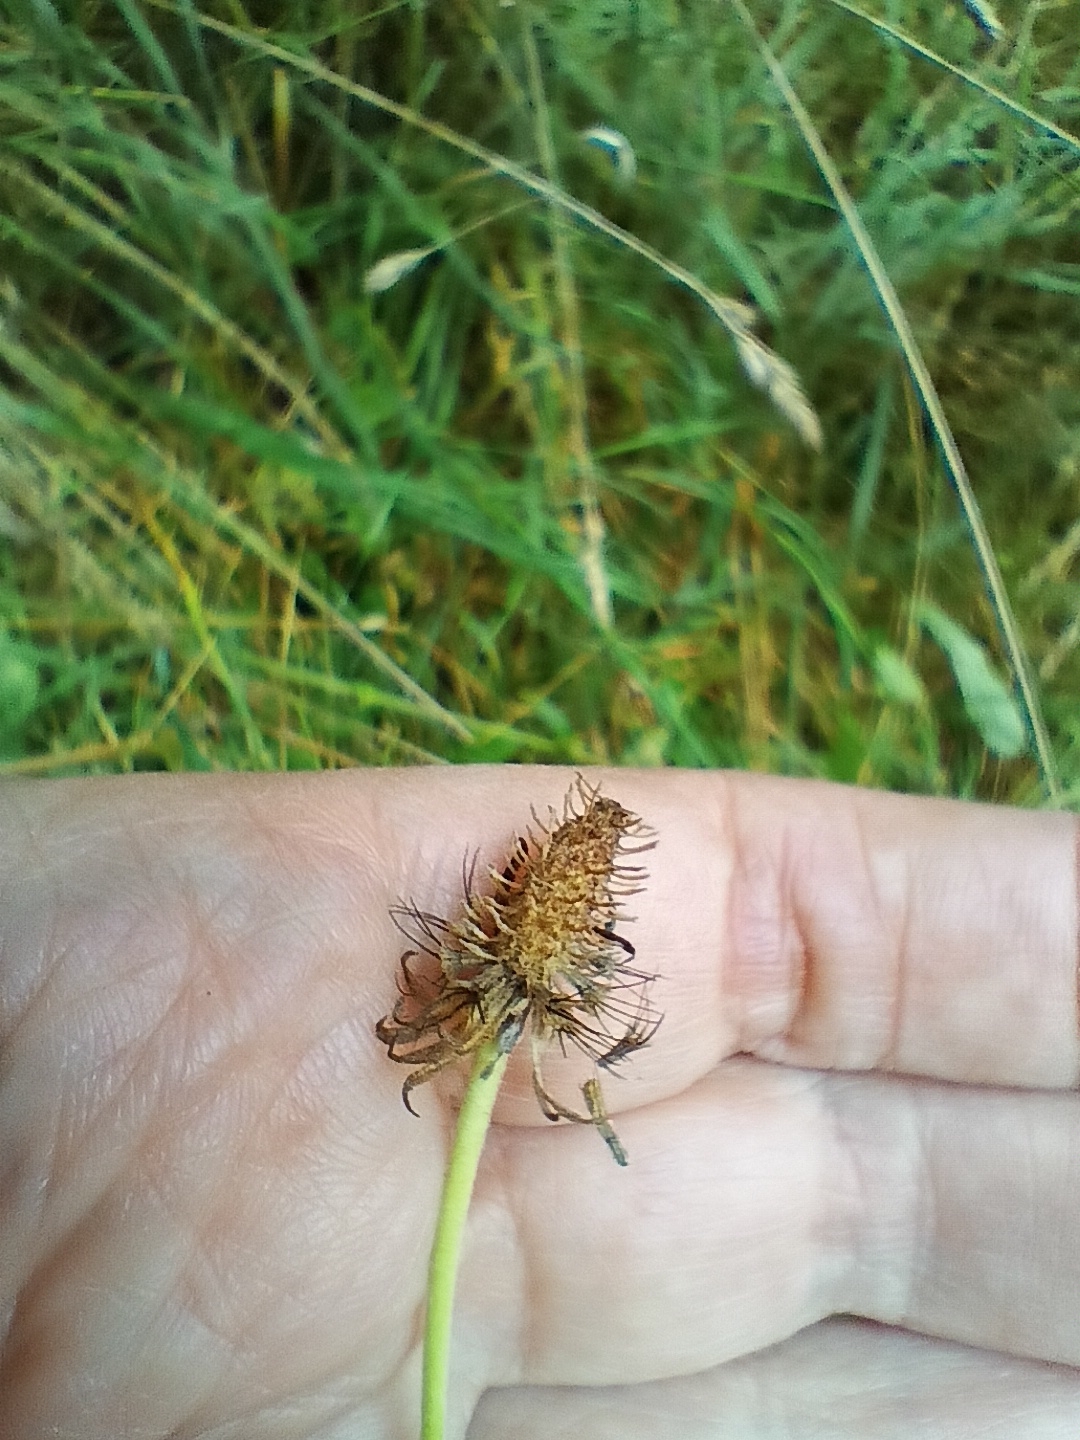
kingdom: Plantae
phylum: Tracheophyta
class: Magnoliopsida
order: Dipsacales
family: Caprifoliaceae
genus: Scabiosa
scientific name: Scabiosa ochroleuca
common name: Cream pincushions
